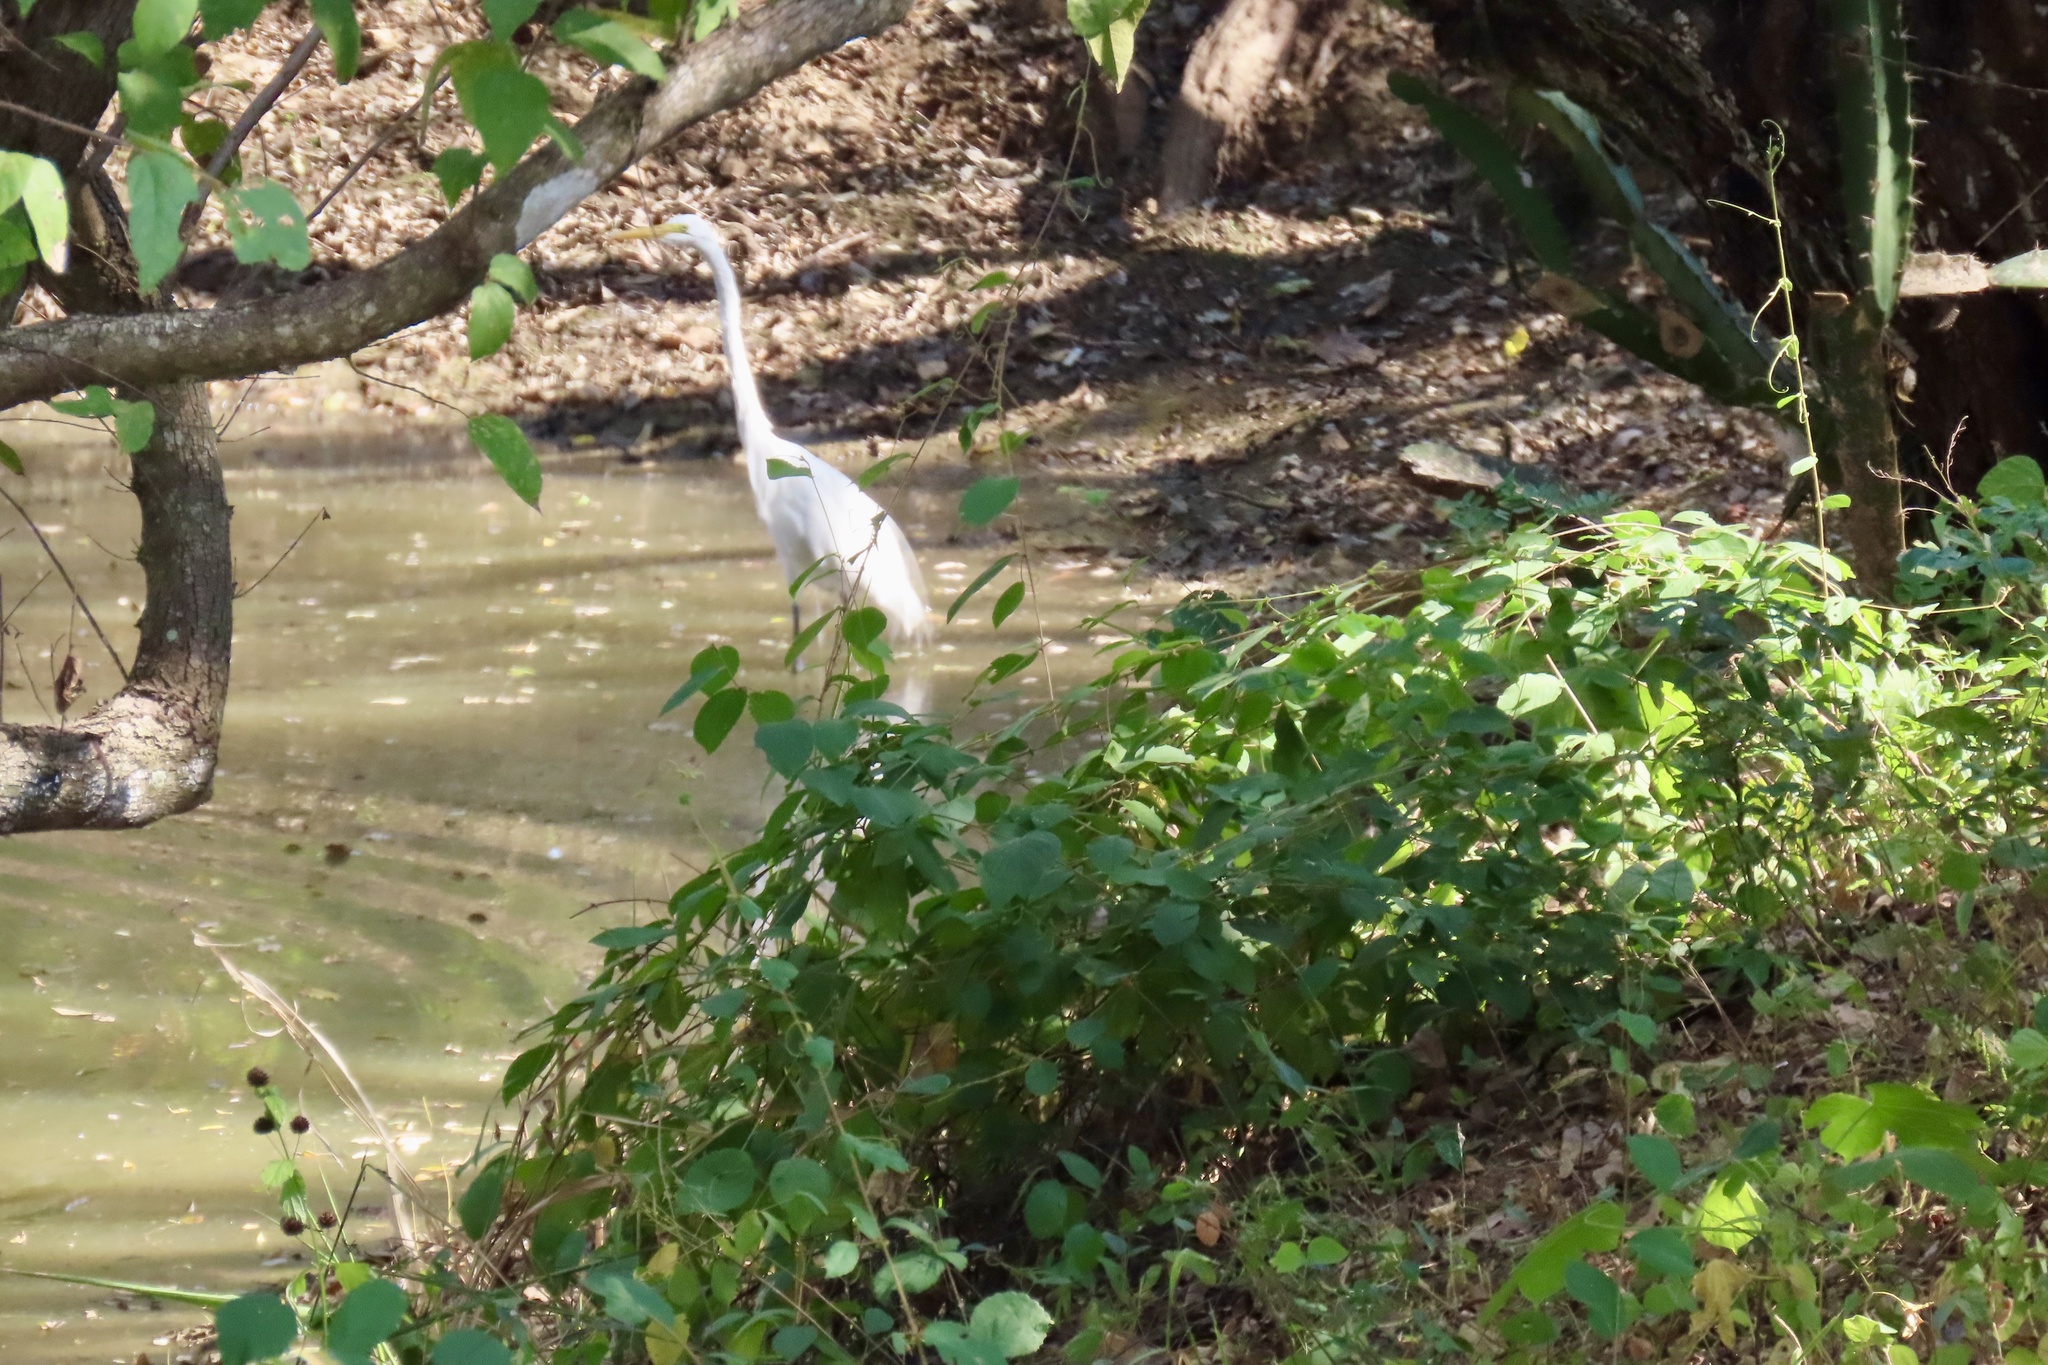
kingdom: Animalia
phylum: Chordata
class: Aves
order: Pelecaniformes
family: Ardeidae
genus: Ardea
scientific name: Ardea alba
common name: Great egret
